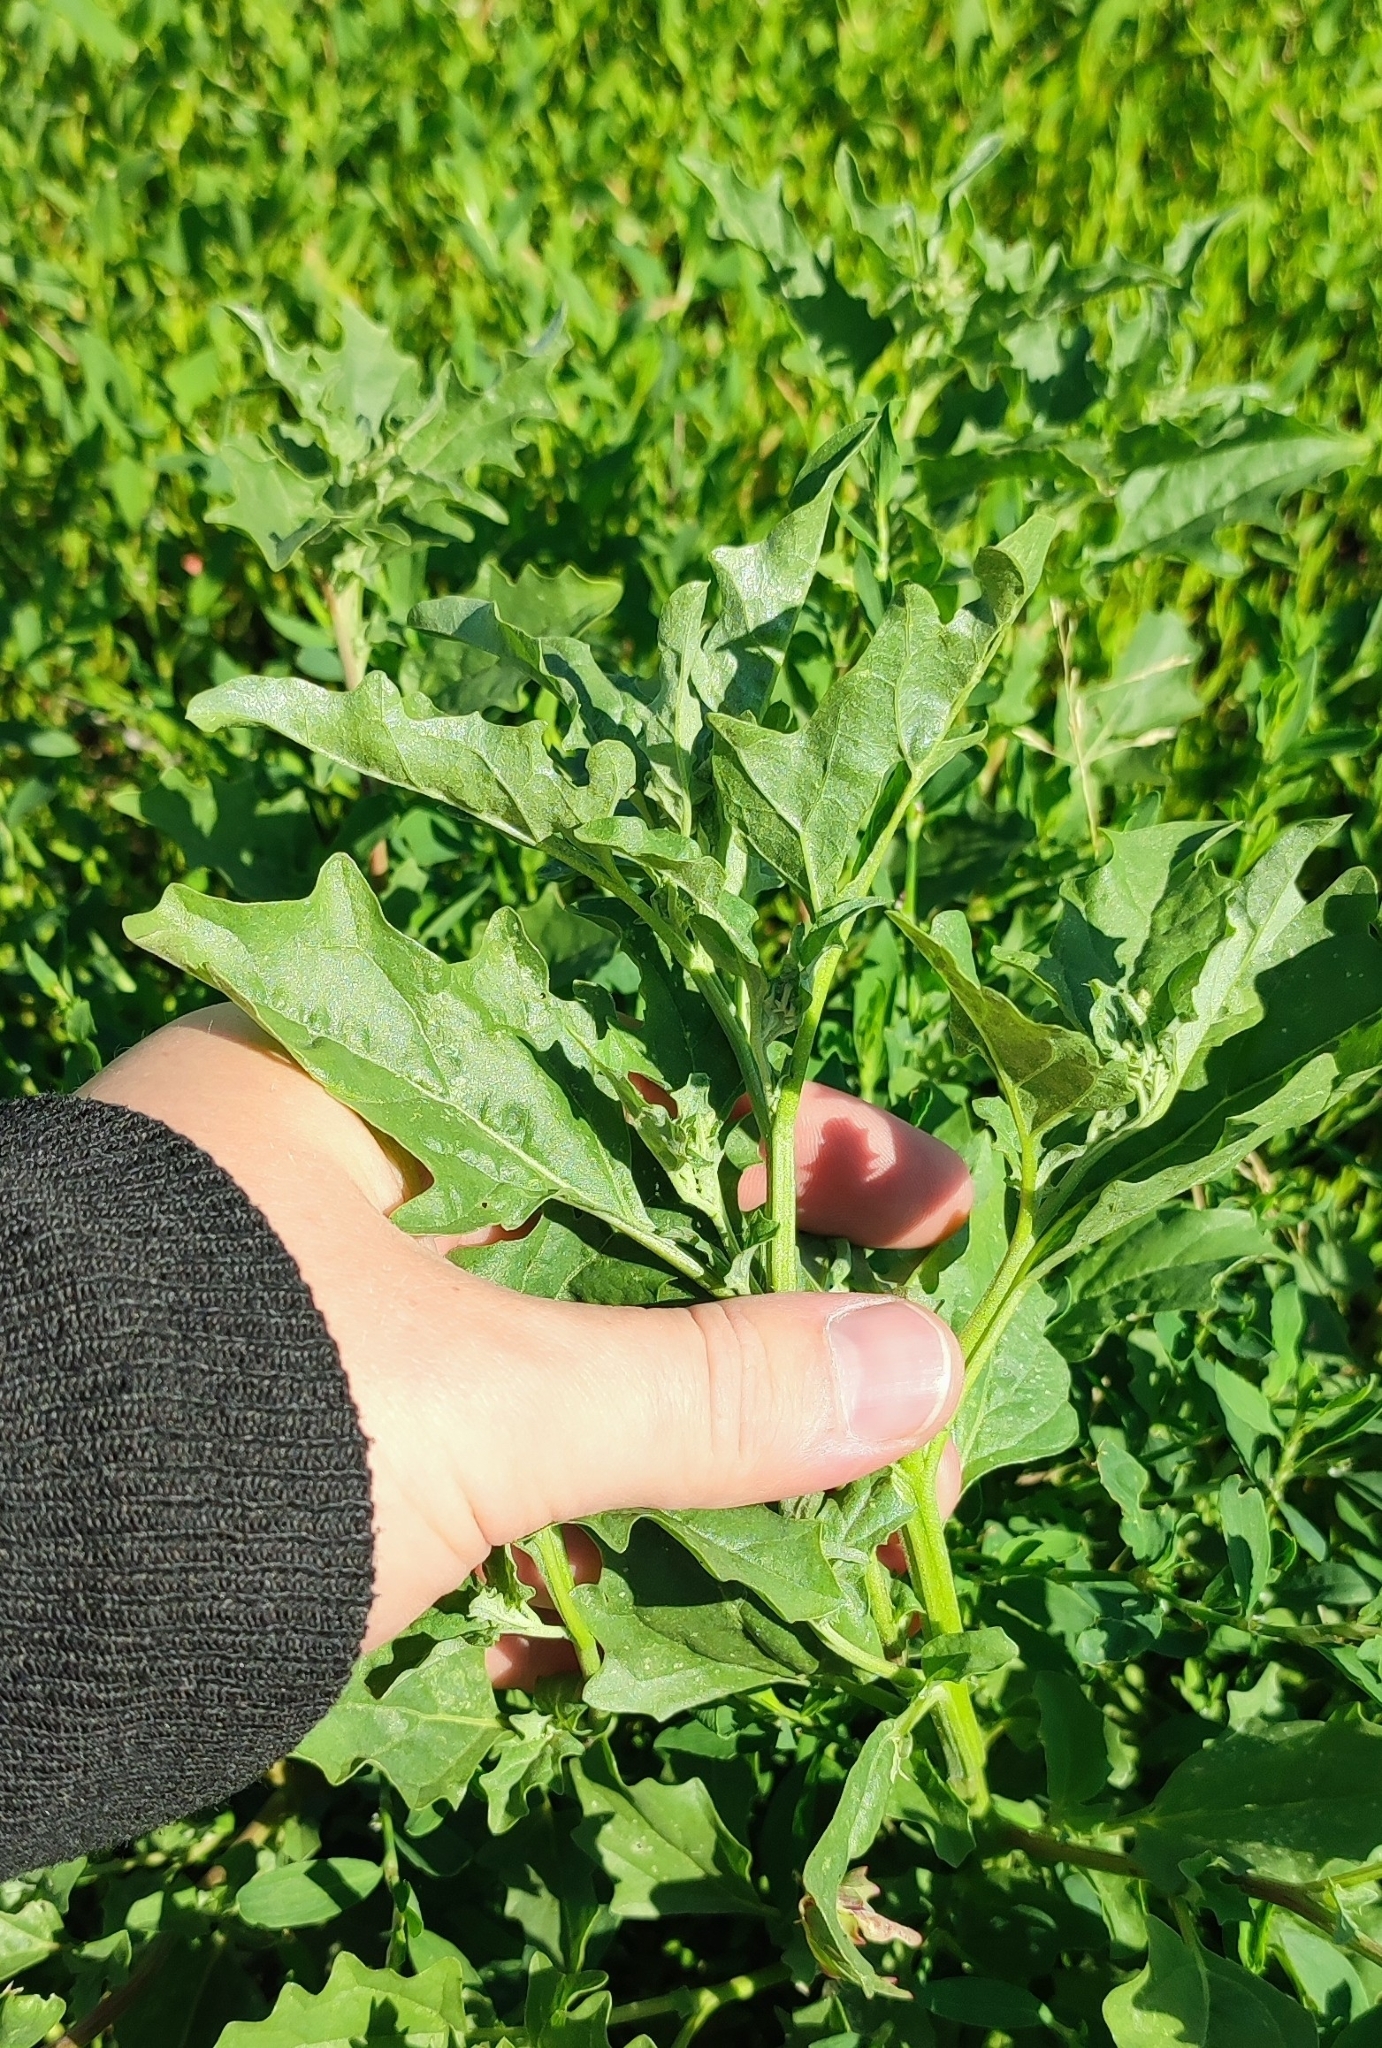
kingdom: Plantae
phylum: Tracheophyta
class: Magnoliopsida
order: Caryophyllales
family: Amaranthaceae
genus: Atriplex
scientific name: Atriplex tatarica
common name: Tatarian orache
